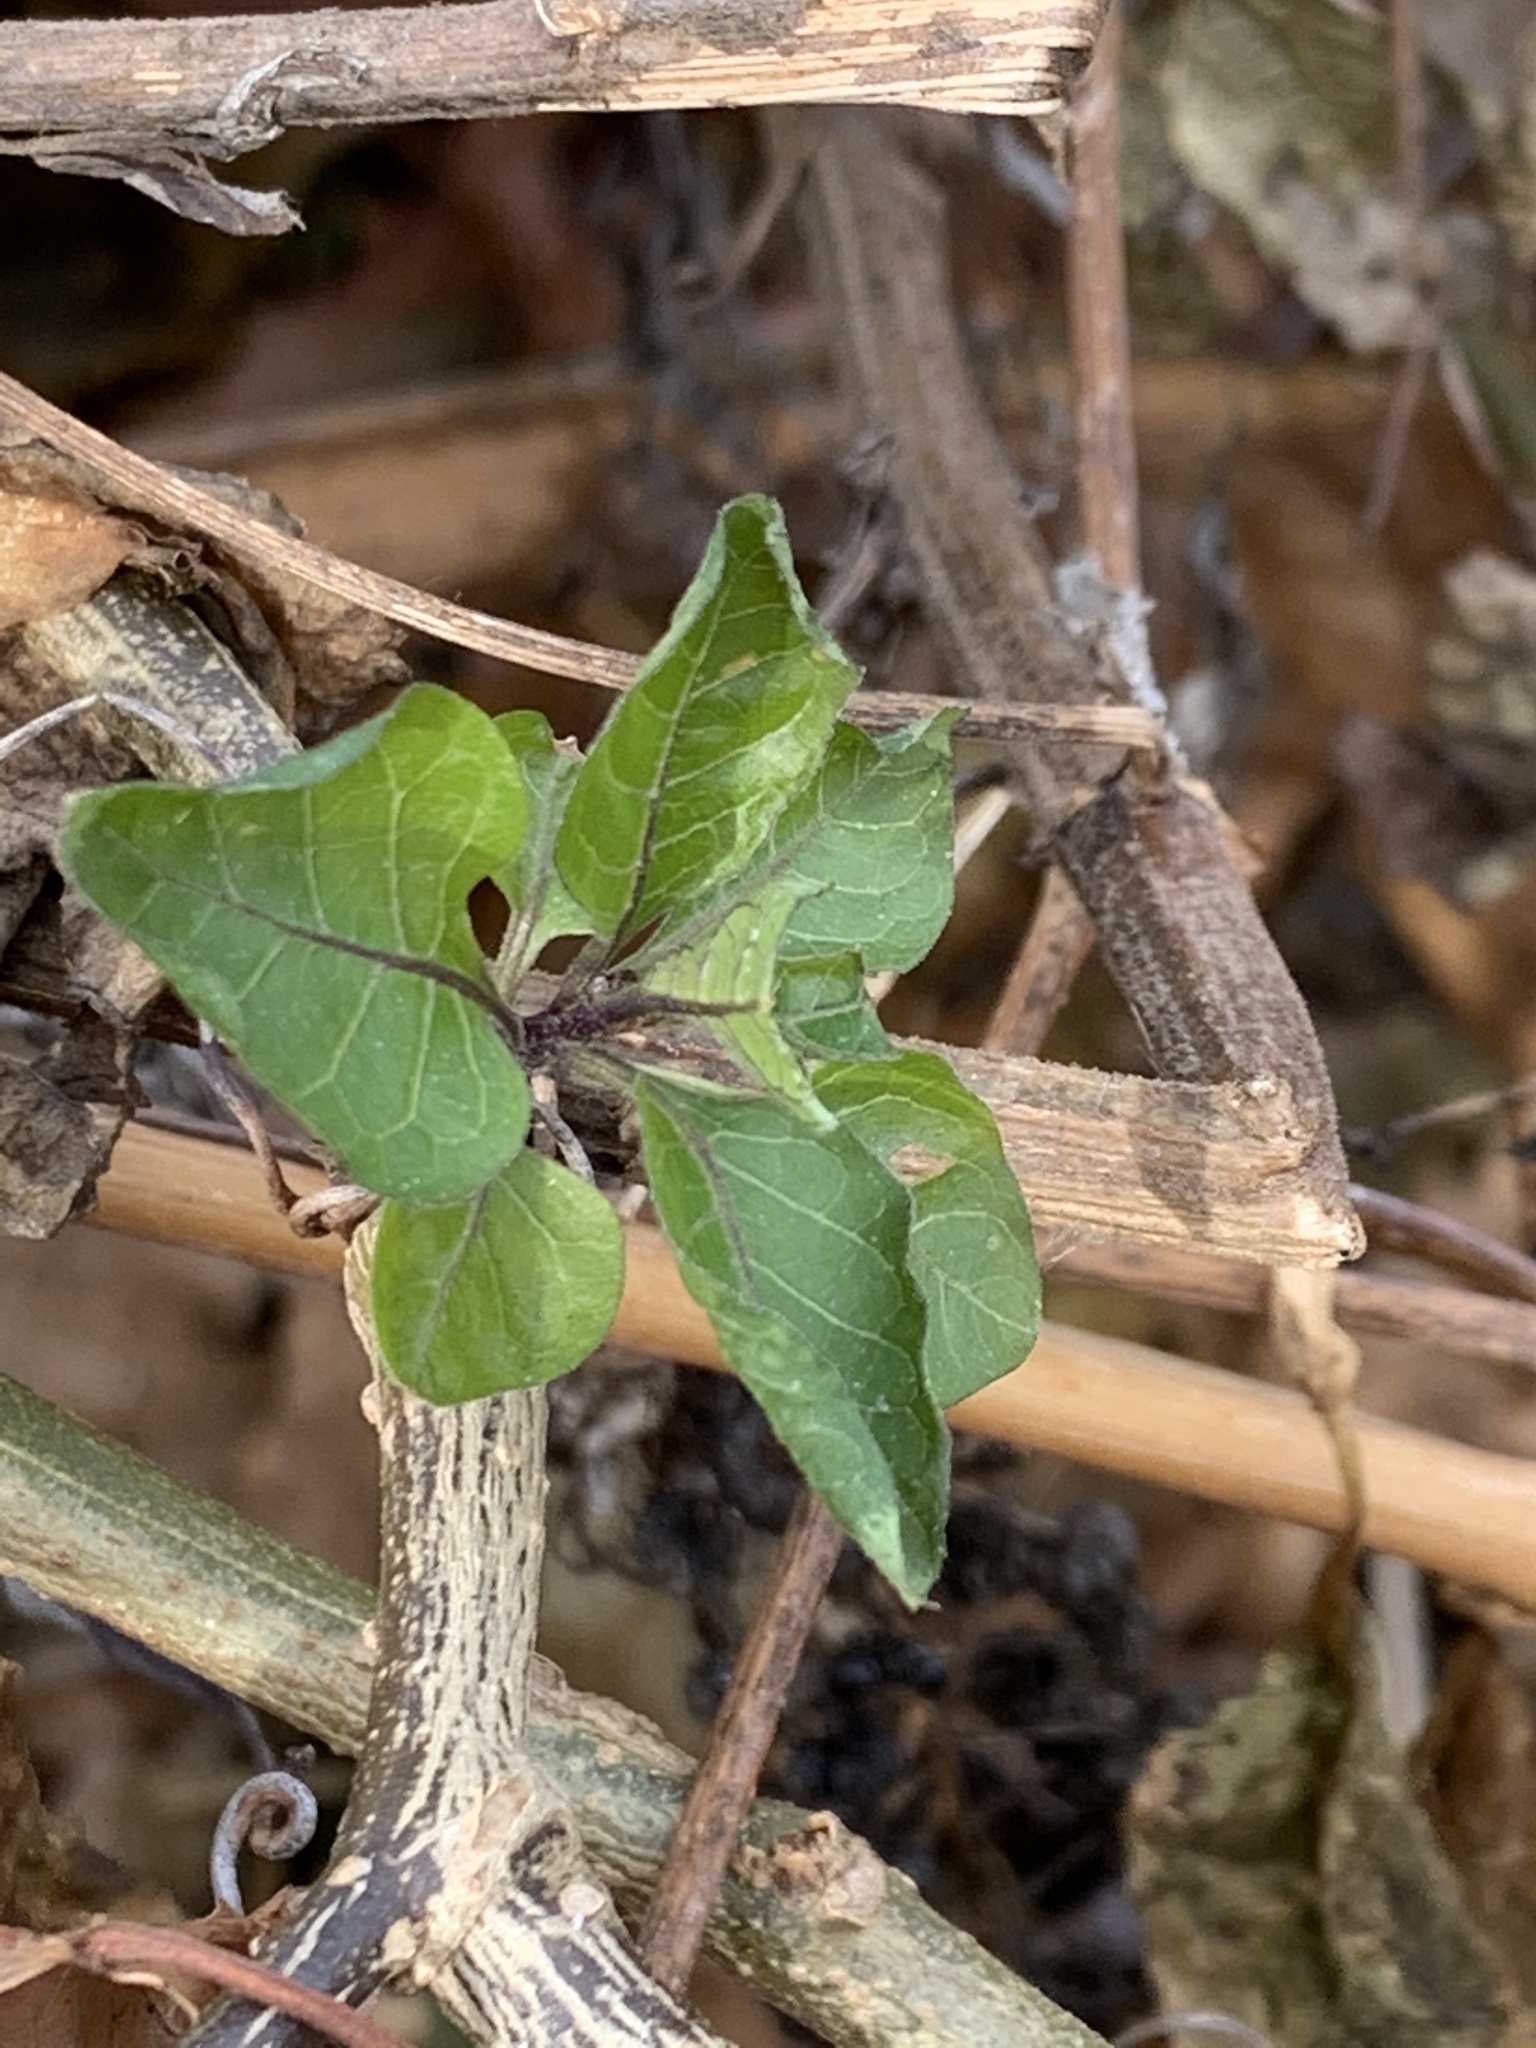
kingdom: Plantae
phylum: Tracheophyta
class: Magnoliopsida
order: Solanales
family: Solanaceae
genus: Solanum
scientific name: Solanum dulcamara
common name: Climbing nightshade
